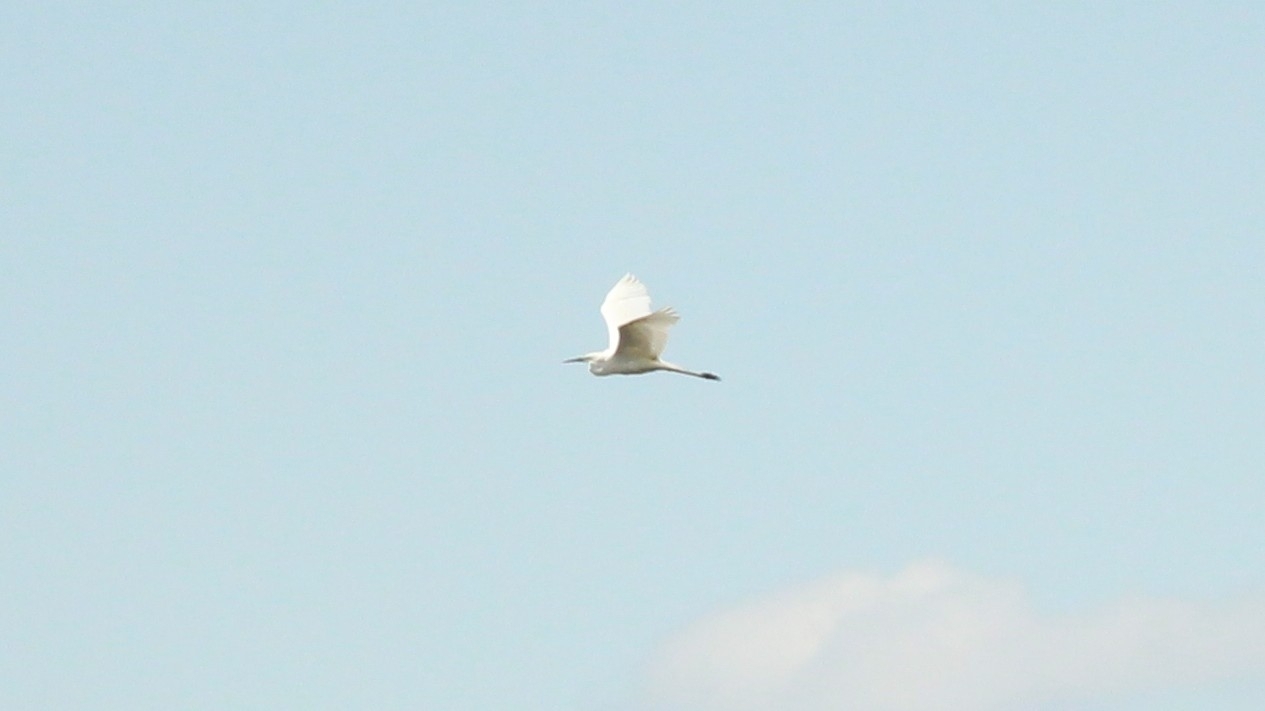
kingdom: Animalia
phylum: Chordata
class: Aves
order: Pelecaniformes
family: Ardeidae
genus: Ardea
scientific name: Ardea alba
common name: Great egret
